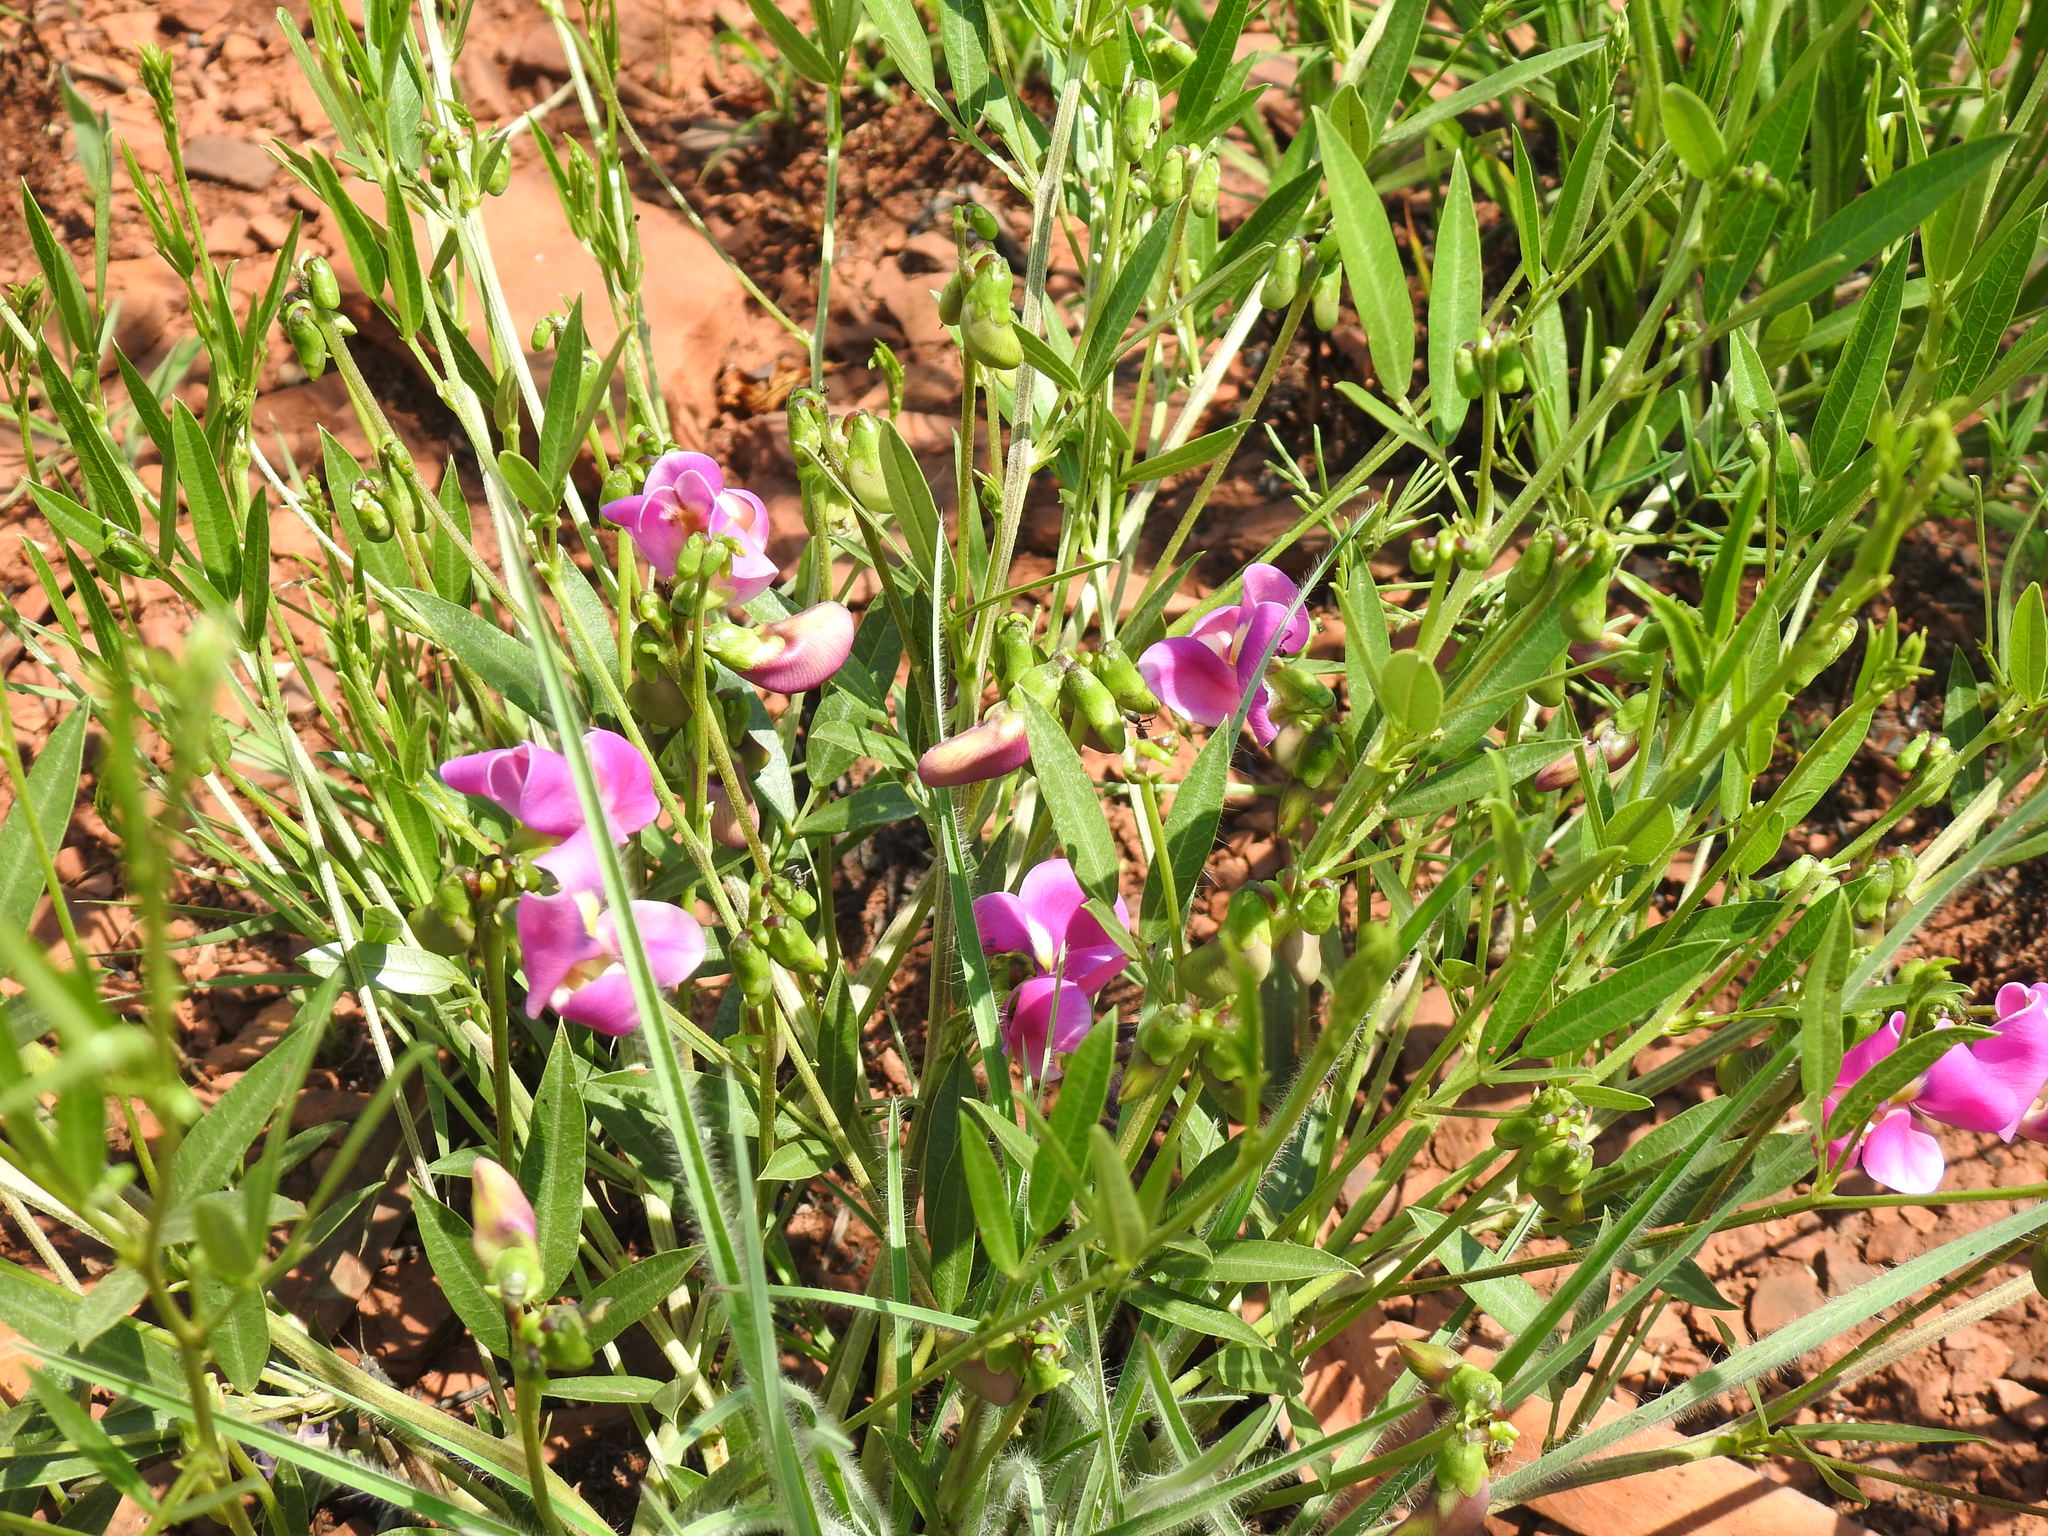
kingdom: Plantae
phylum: Tracheophyta
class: Magnoliopsida
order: Fabales
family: Fabaceae
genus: Sphenostylis
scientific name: Sphenostylis angustifolia
